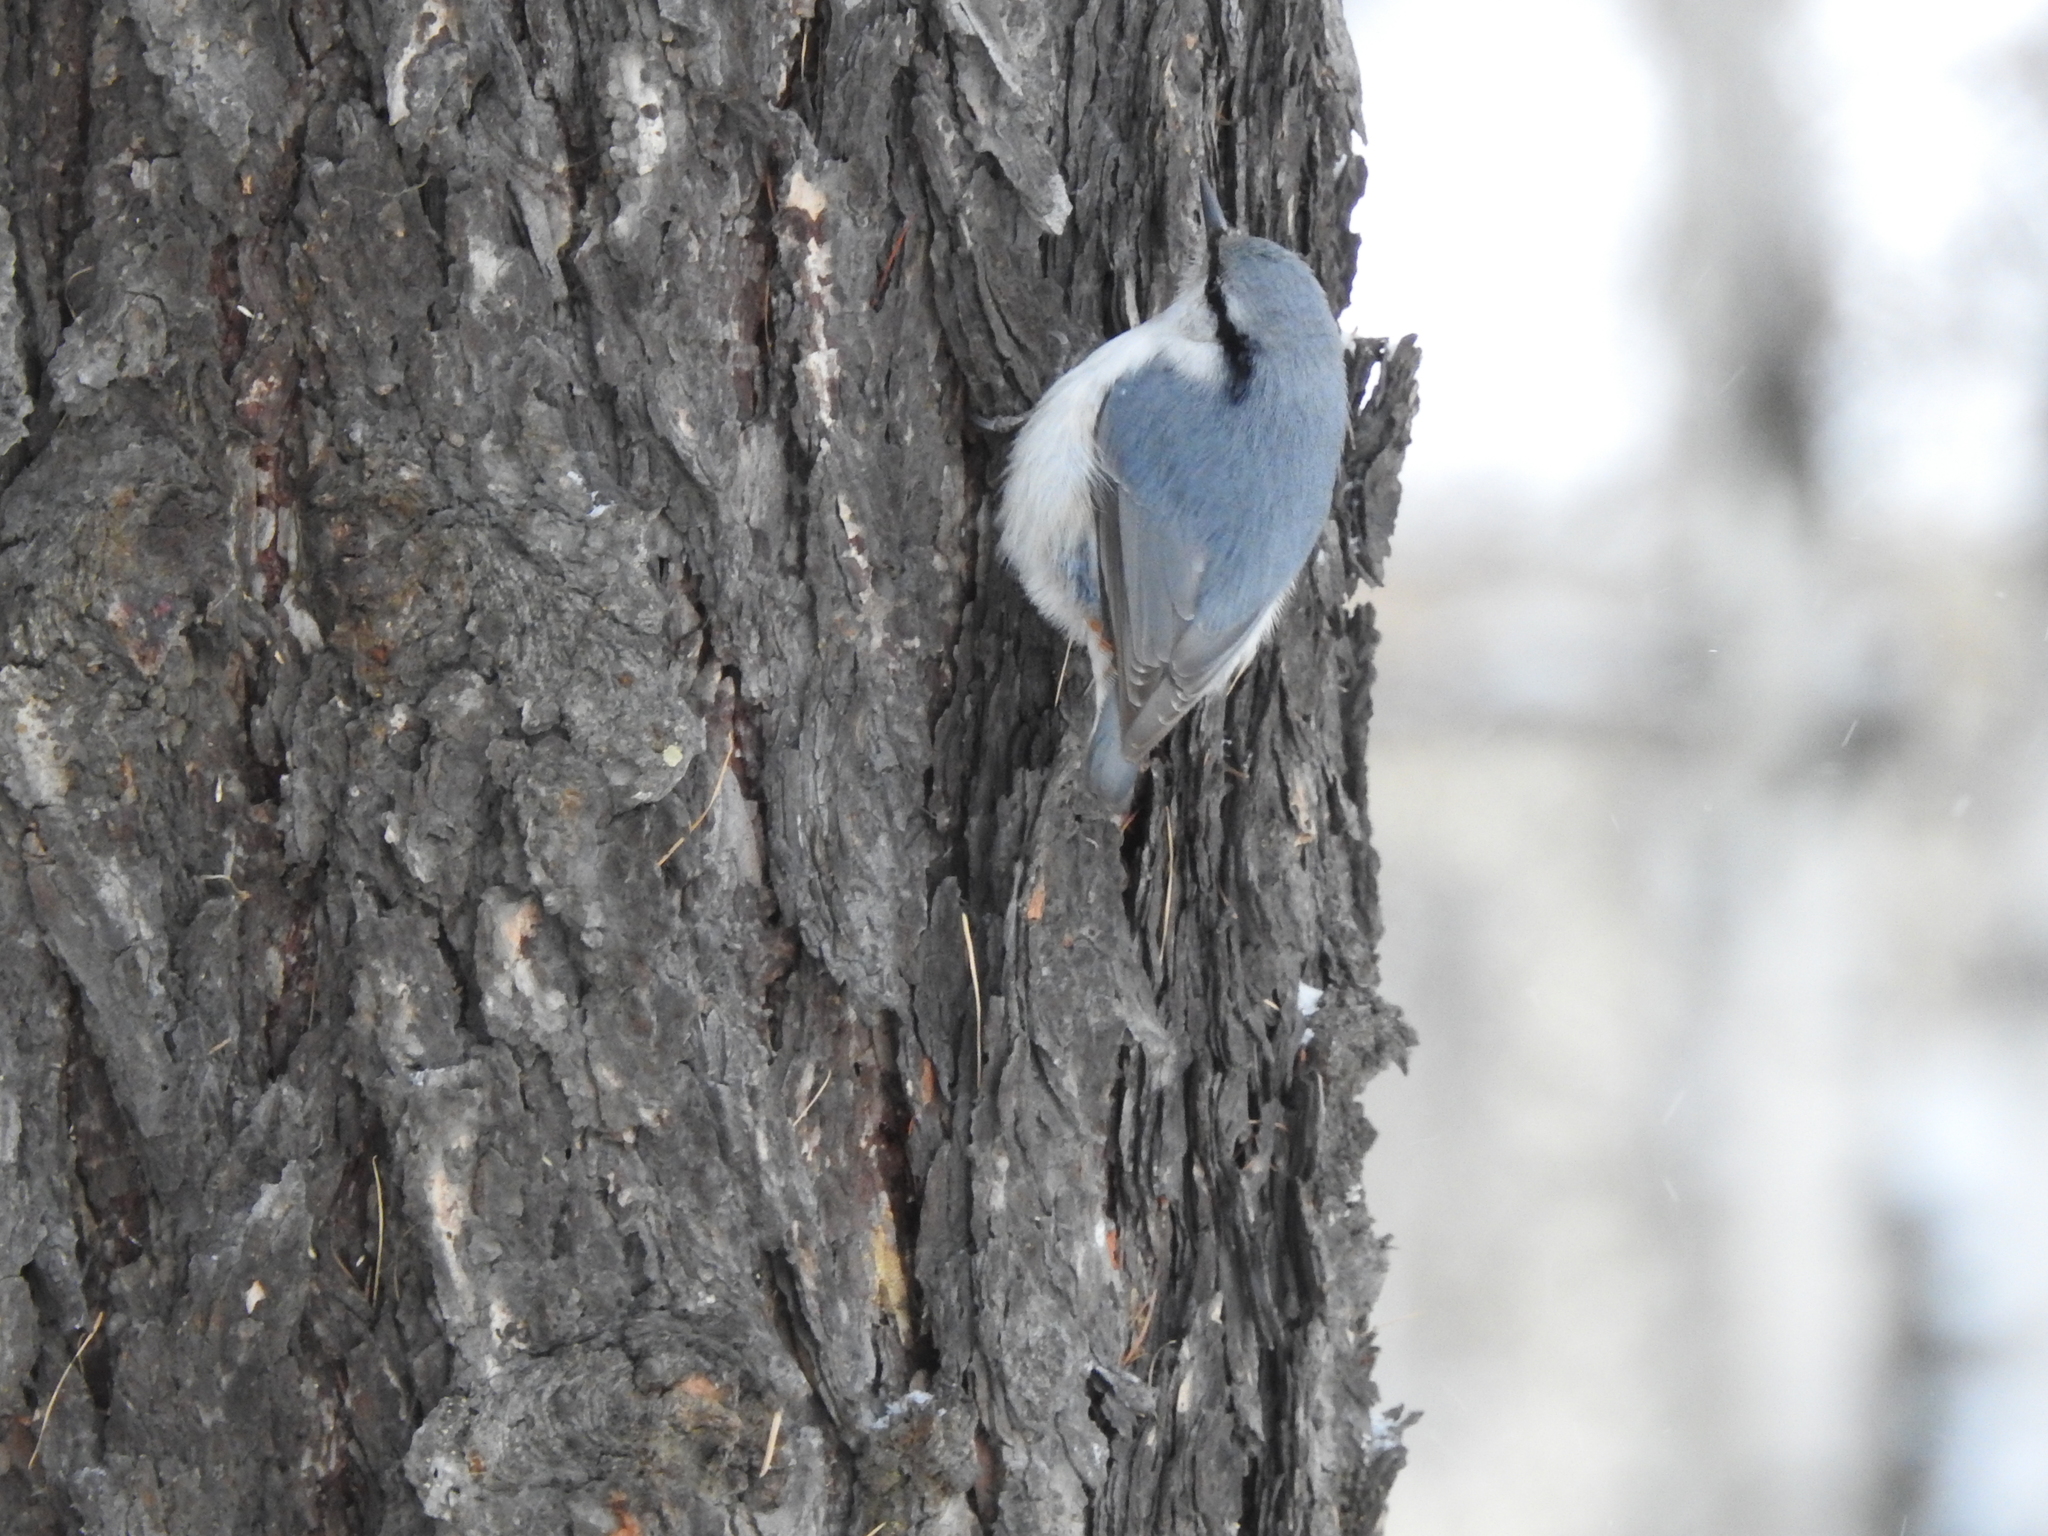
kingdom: Animalia
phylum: Chordata
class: Aves
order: Passeriformes
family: Sittidae
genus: Sitta
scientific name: Sitta europaea
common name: Eurasian nuthatch
